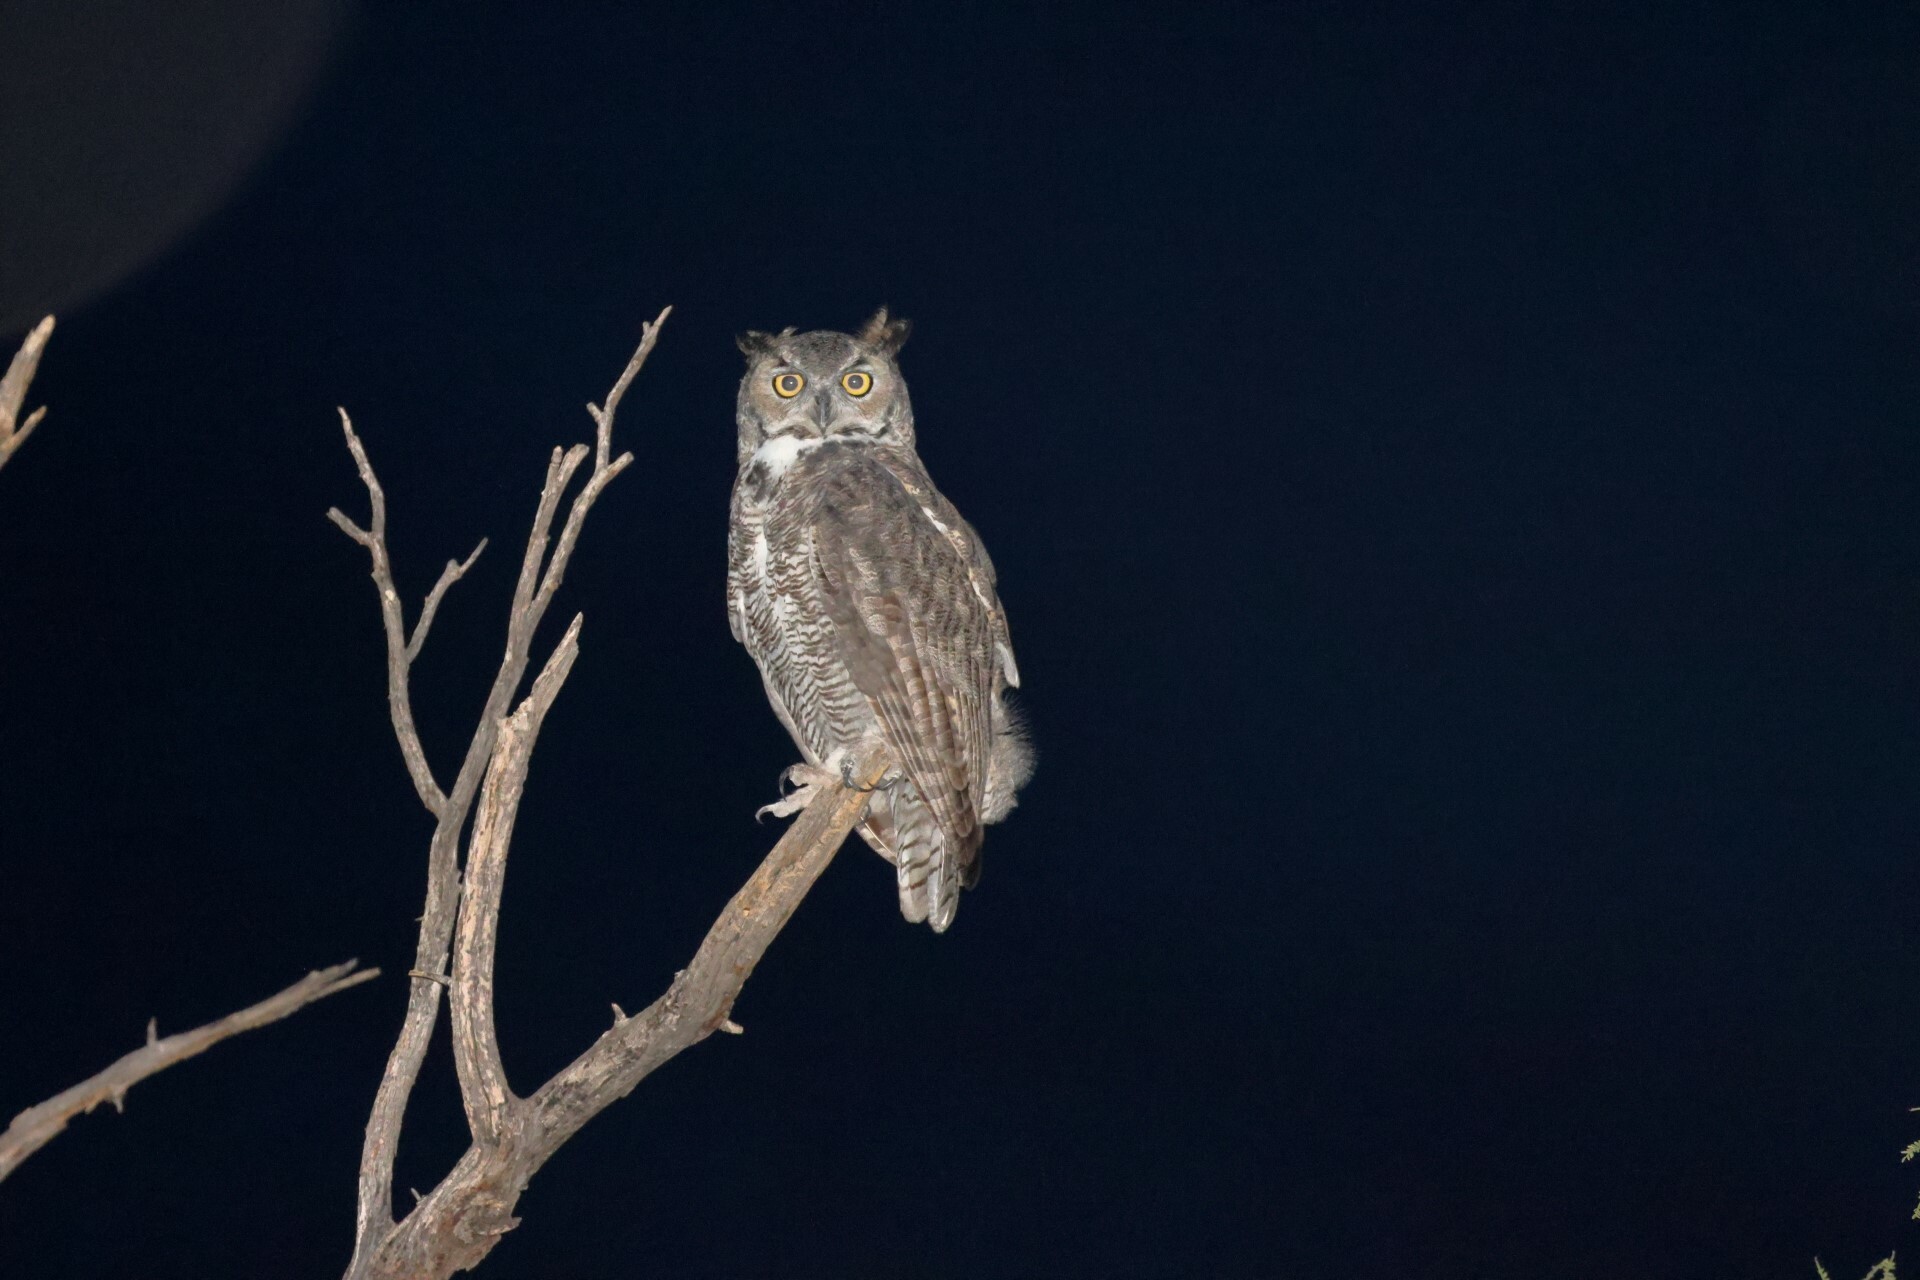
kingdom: Animalia
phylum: Chordata
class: Aves
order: Strigiformes
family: Strigidae
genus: Bubo
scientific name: Bubo virginianus
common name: Great horned owl
